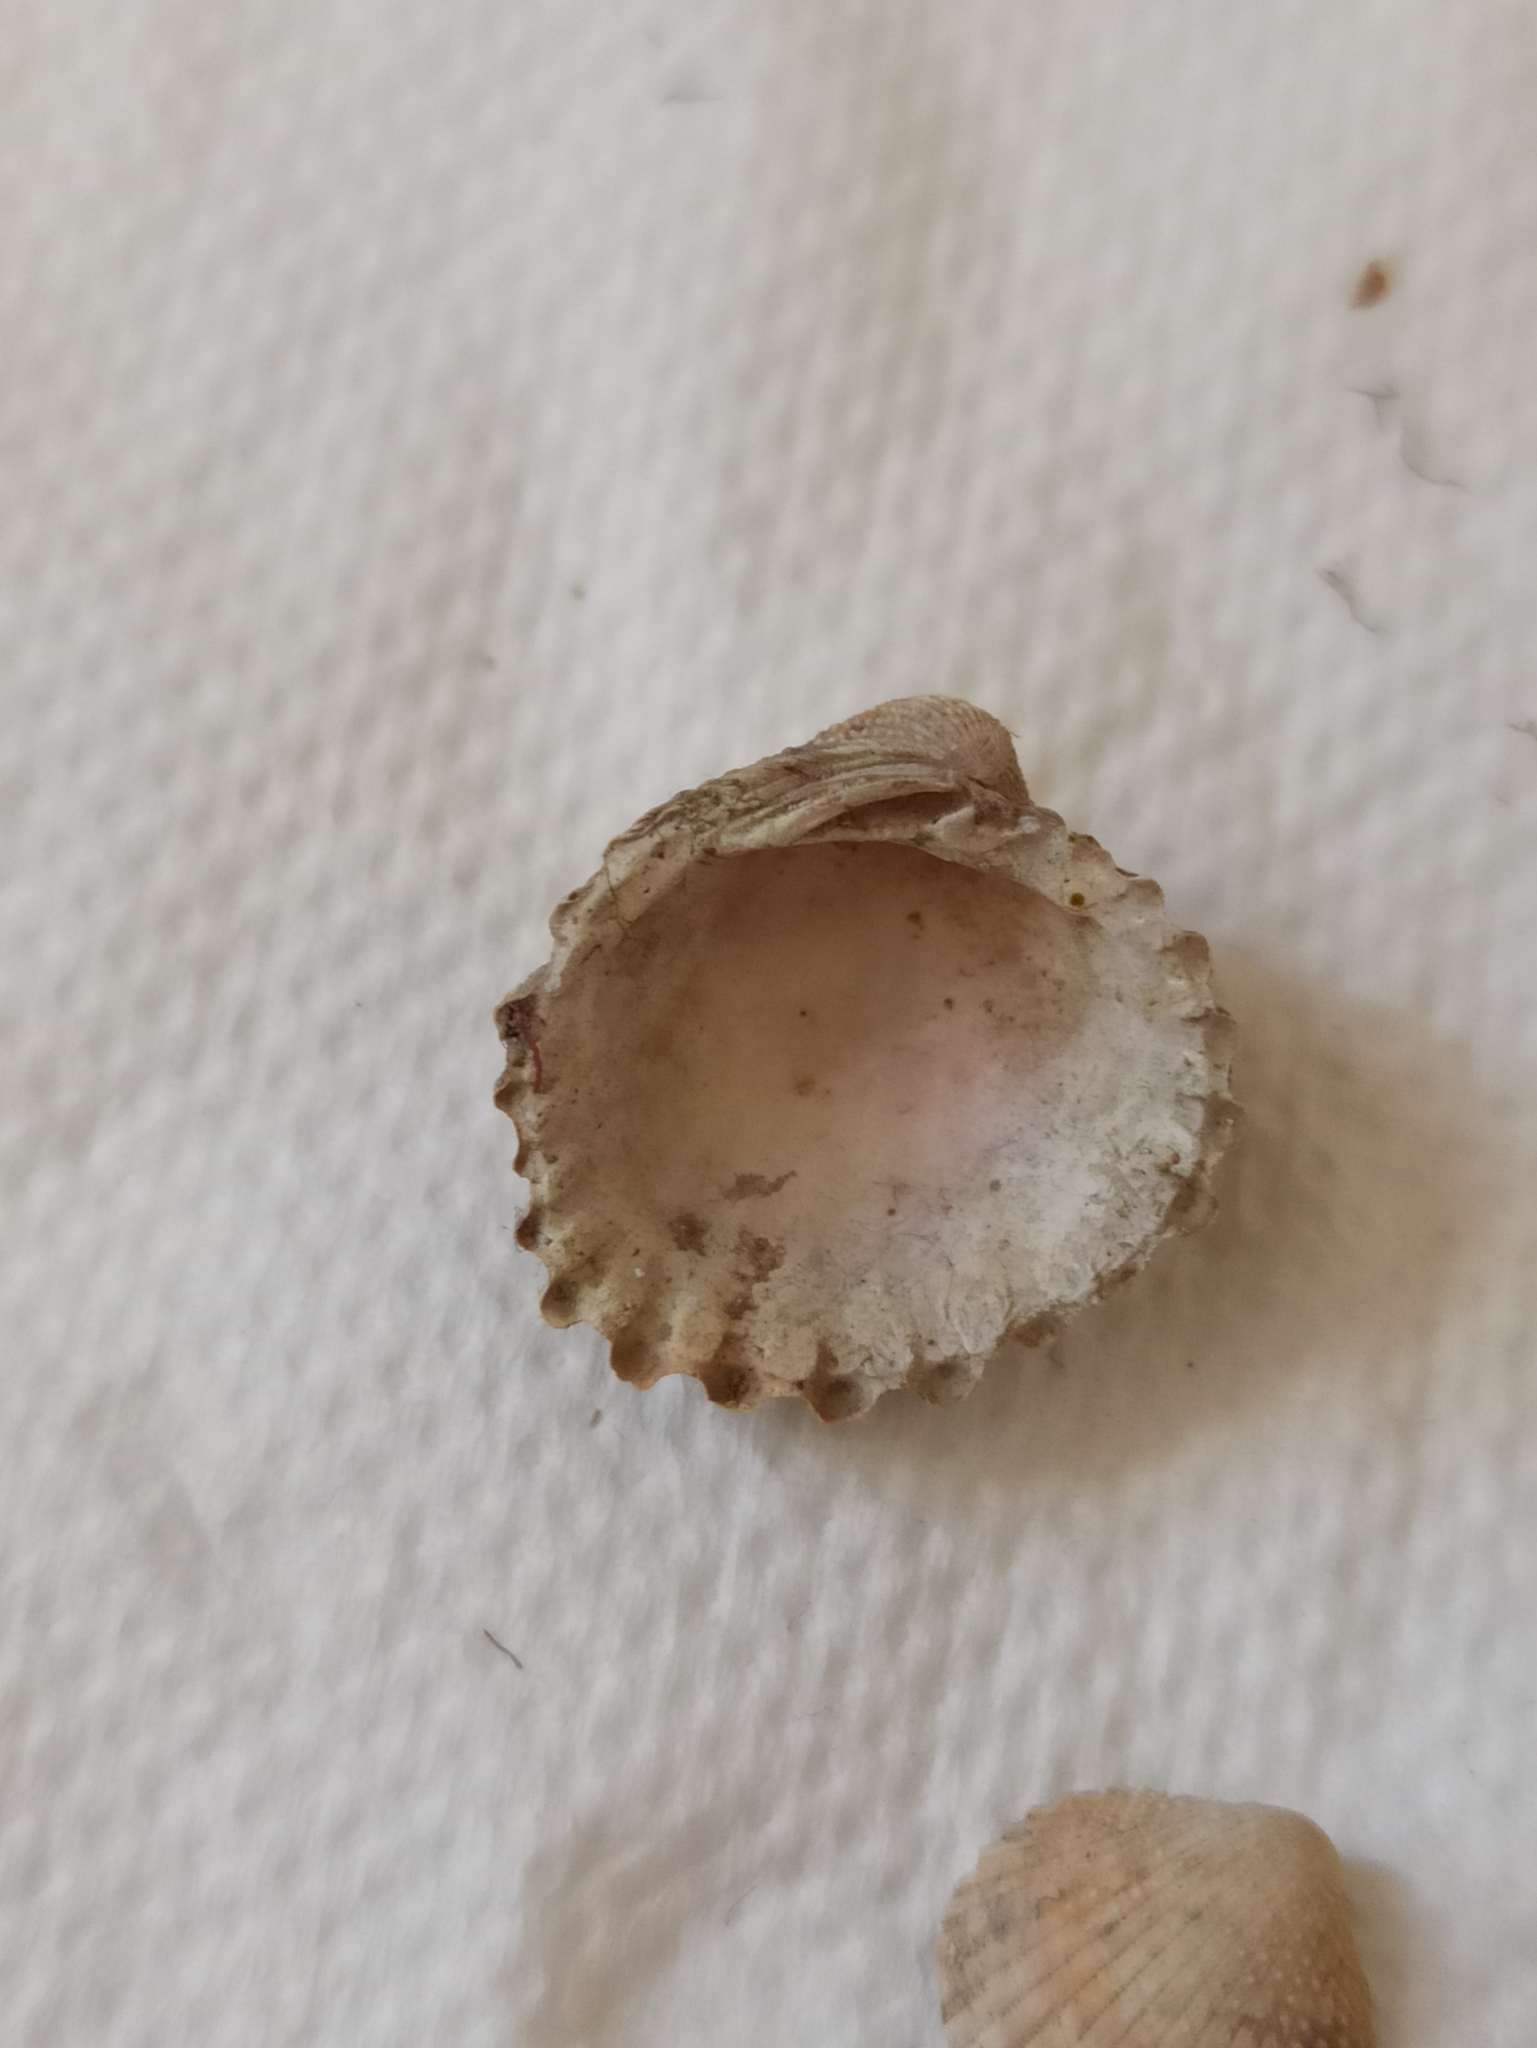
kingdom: Animalia
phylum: Mollusca
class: Bivalvia
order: Carditida
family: Carditidae
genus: Cardites
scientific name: Cardites antiquatus
